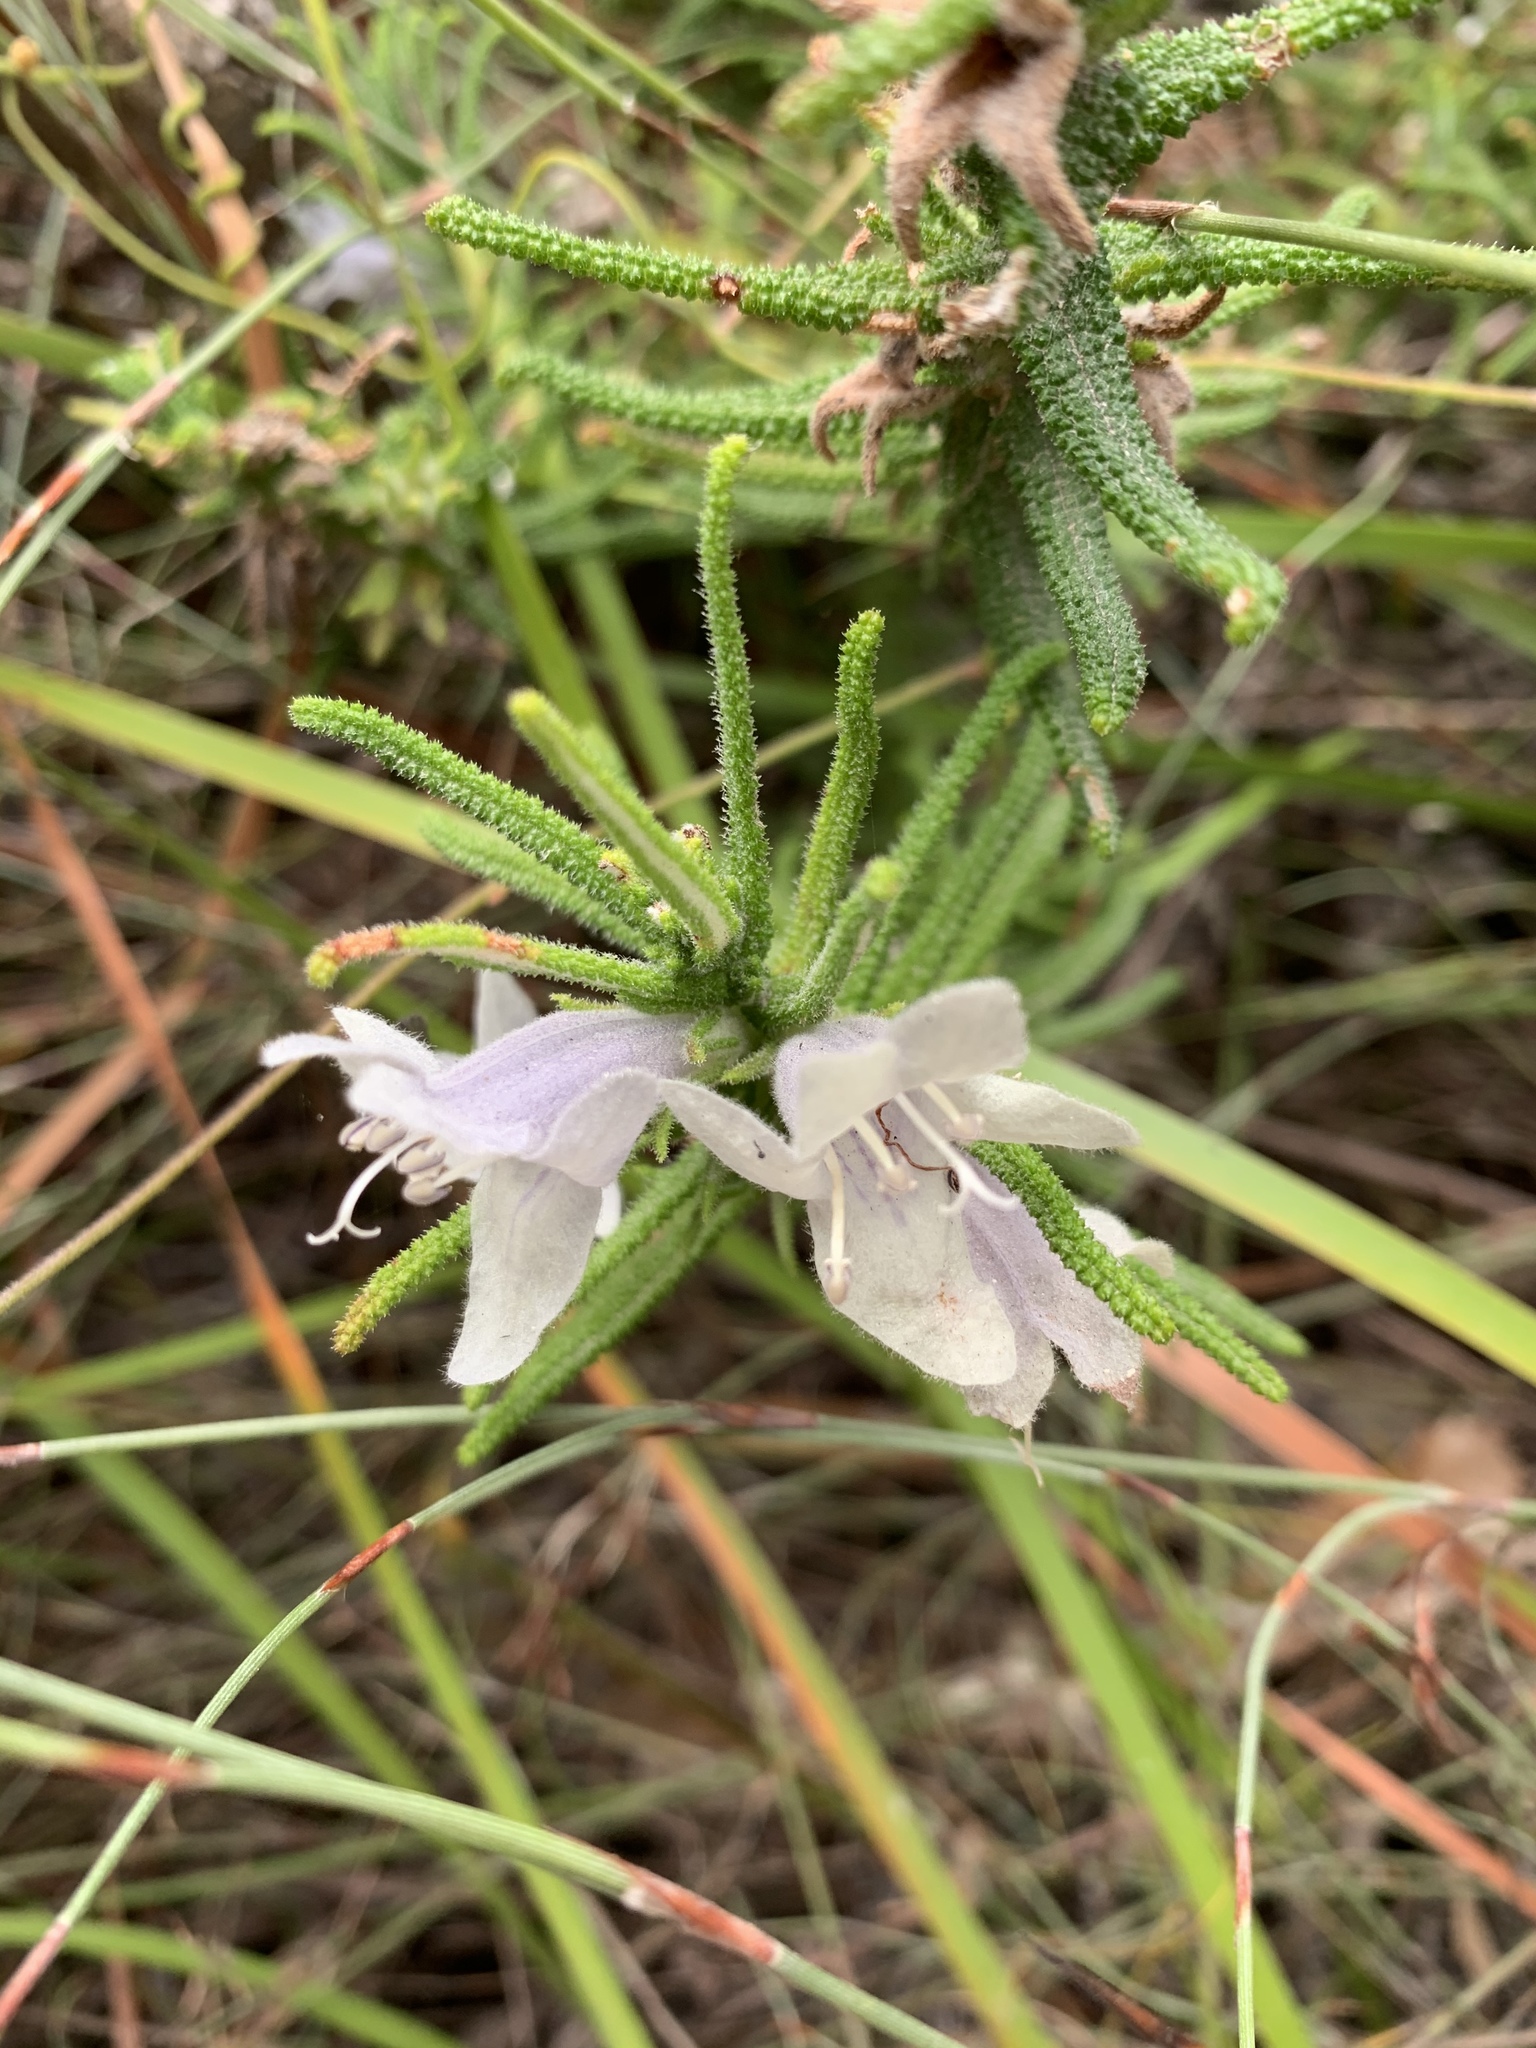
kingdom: Plantae
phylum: Tracheophyta
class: Magnoliopsida
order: Lamiales
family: Lamiaceae
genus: Chloanthes
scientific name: Chloanthes stoechadis
